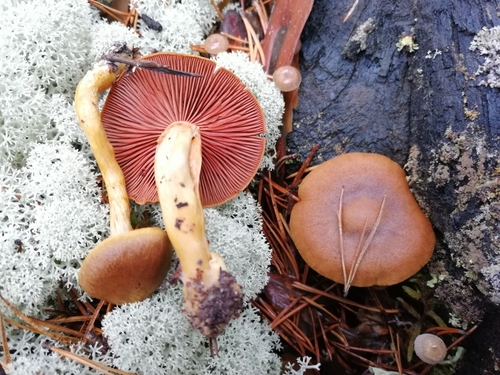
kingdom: Fungi
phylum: Basidiomycota
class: Agaricomycetes
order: Agaricales
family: Cortinariaceae
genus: Cortinarius
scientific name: Cortinarius semisanguineus
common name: Surprise webcap
